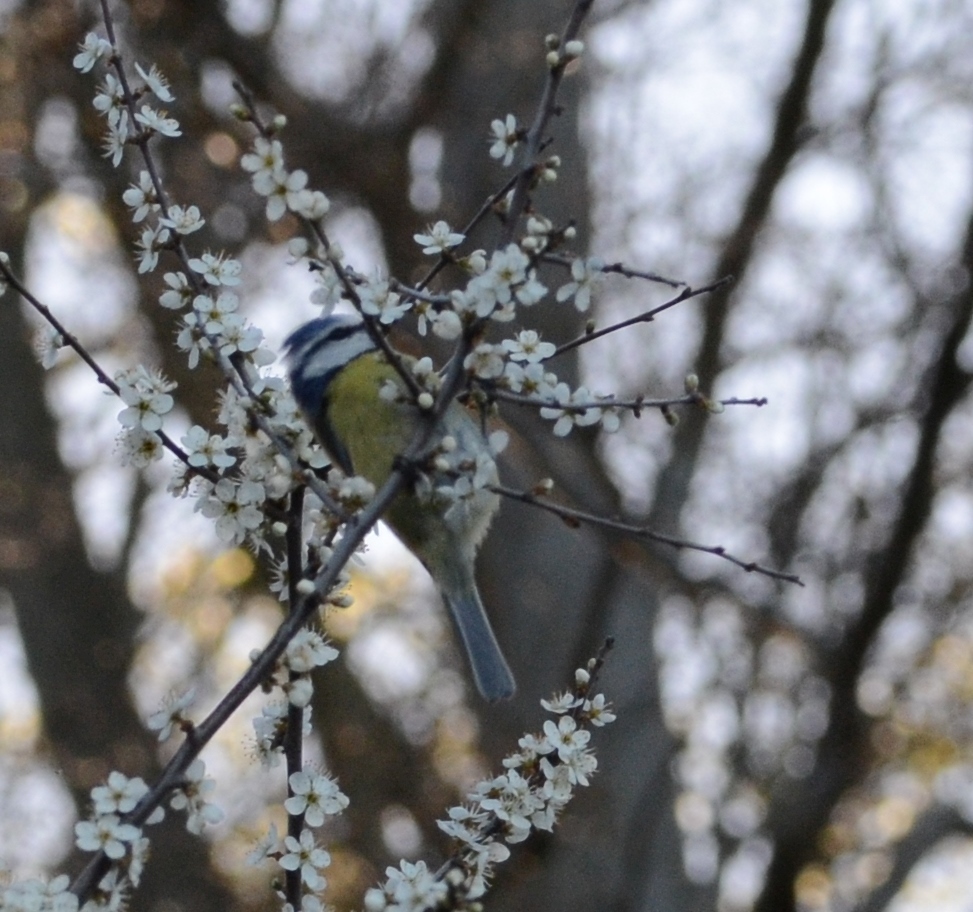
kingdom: Animalia
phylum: Chordata
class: Aves
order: Passeriformes
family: Paridae
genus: Cyanistes
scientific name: Cyanistes caeruleus
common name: Eurasian blue tit
